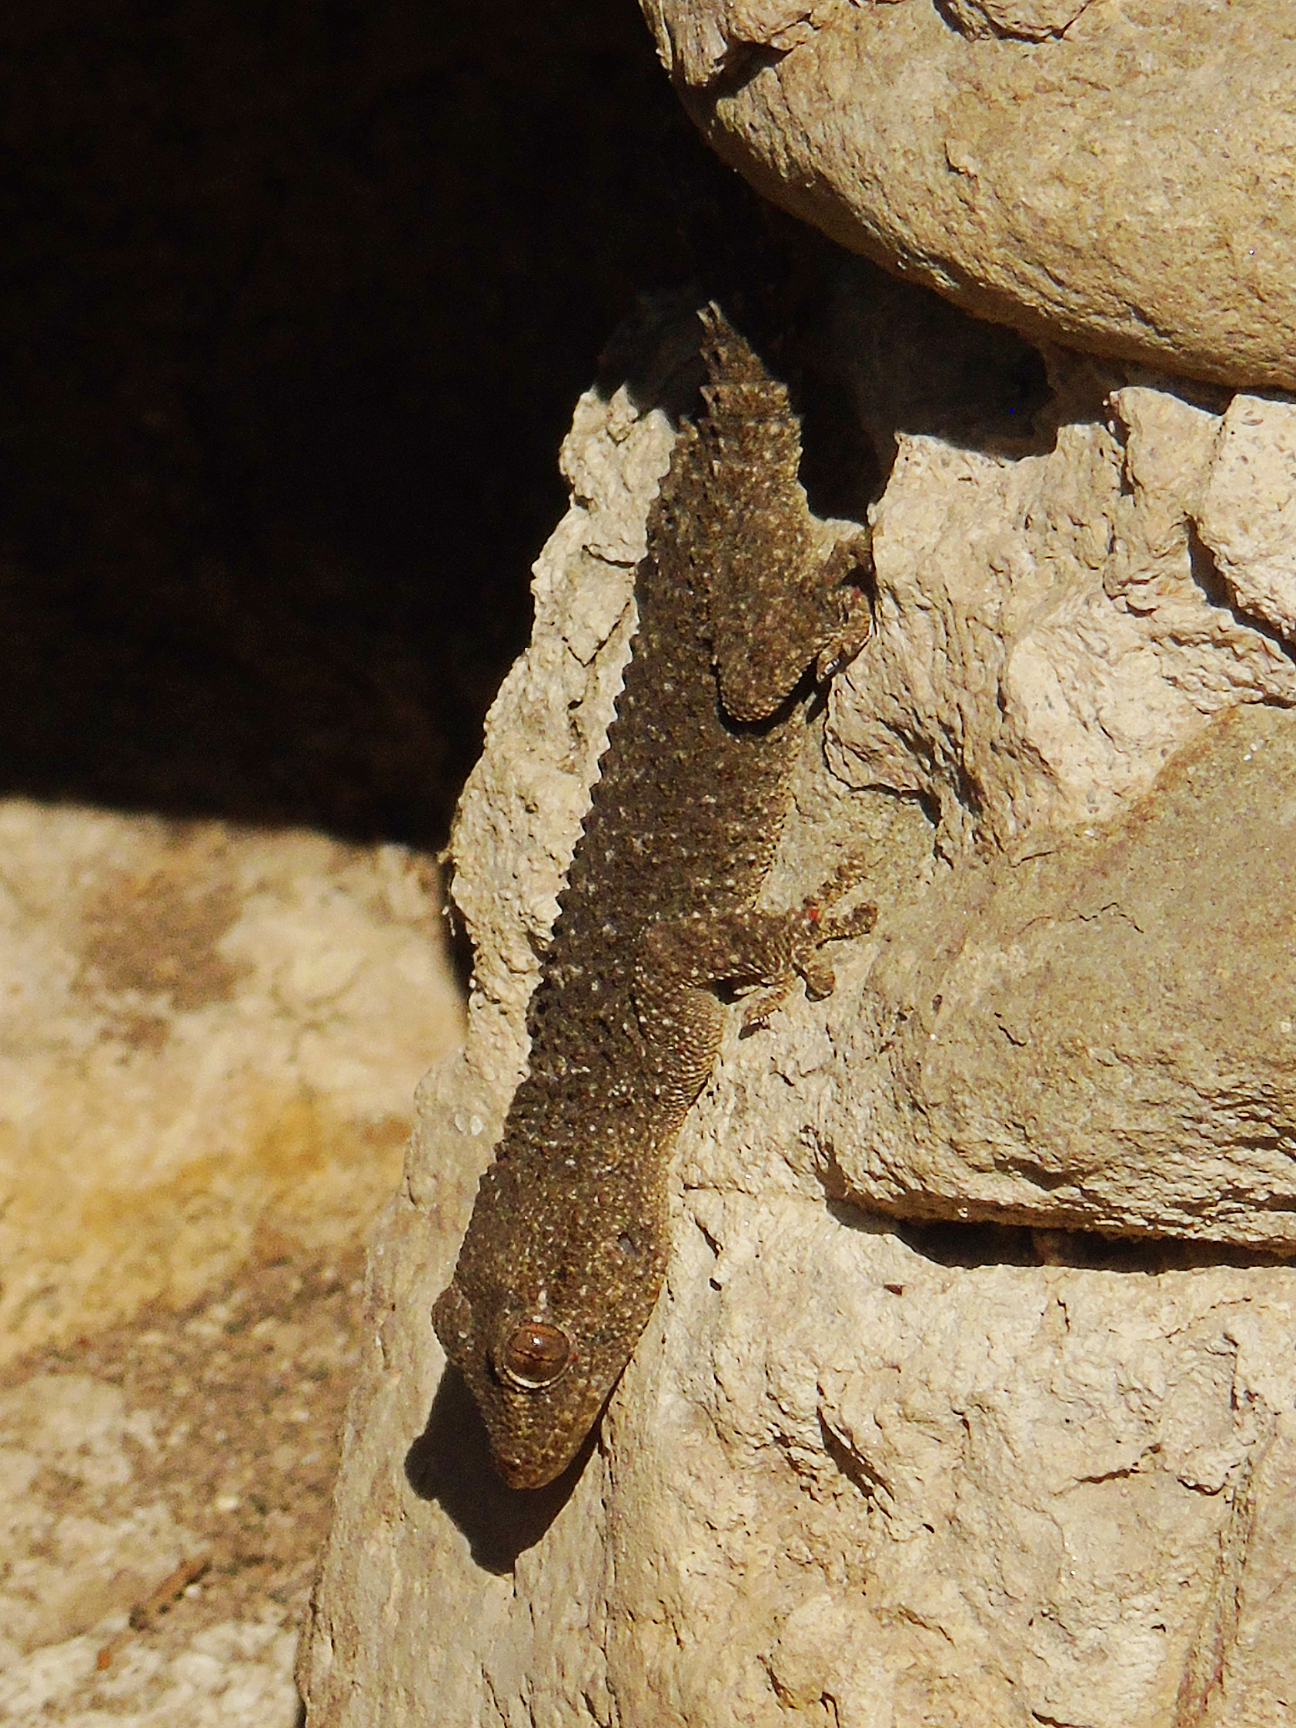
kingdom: Animalia
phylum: Chordata
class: Squamata
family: Phyllodactylidae
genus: Tarentola
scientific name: Tarentola mauritanica
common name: Moorish gecko
